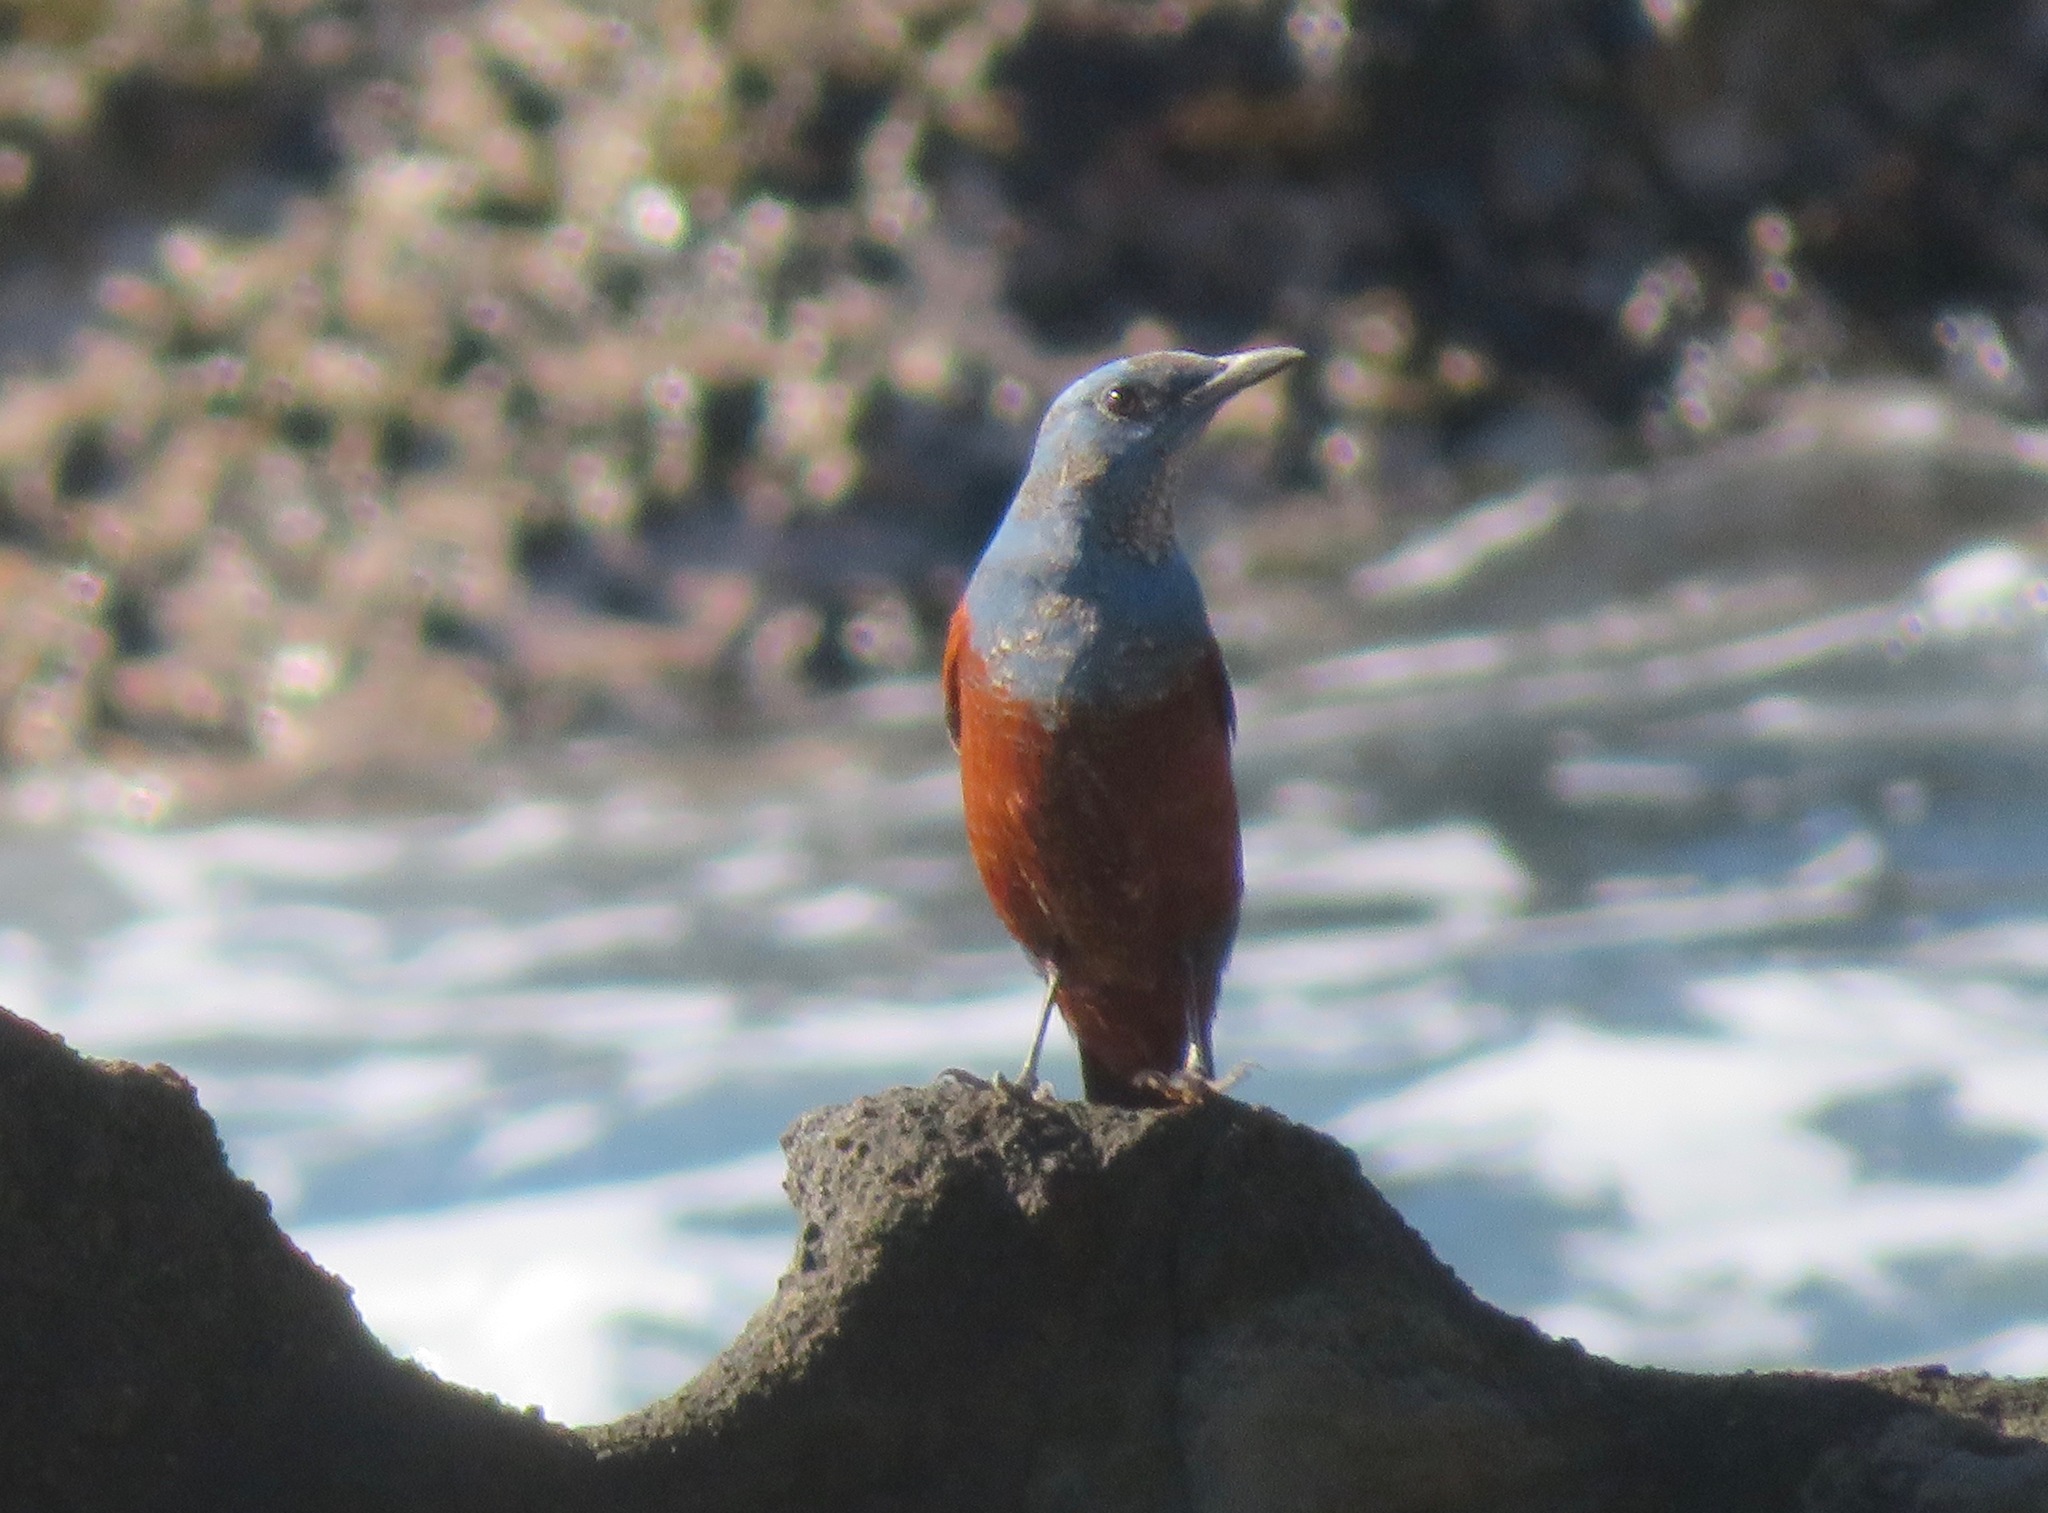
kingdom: Animalia
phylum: Chordata
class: Aves
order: Passeriformes
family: Muscicapidae
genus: Monticola
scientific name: Monticola solitarius
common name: Blue rock thrush
